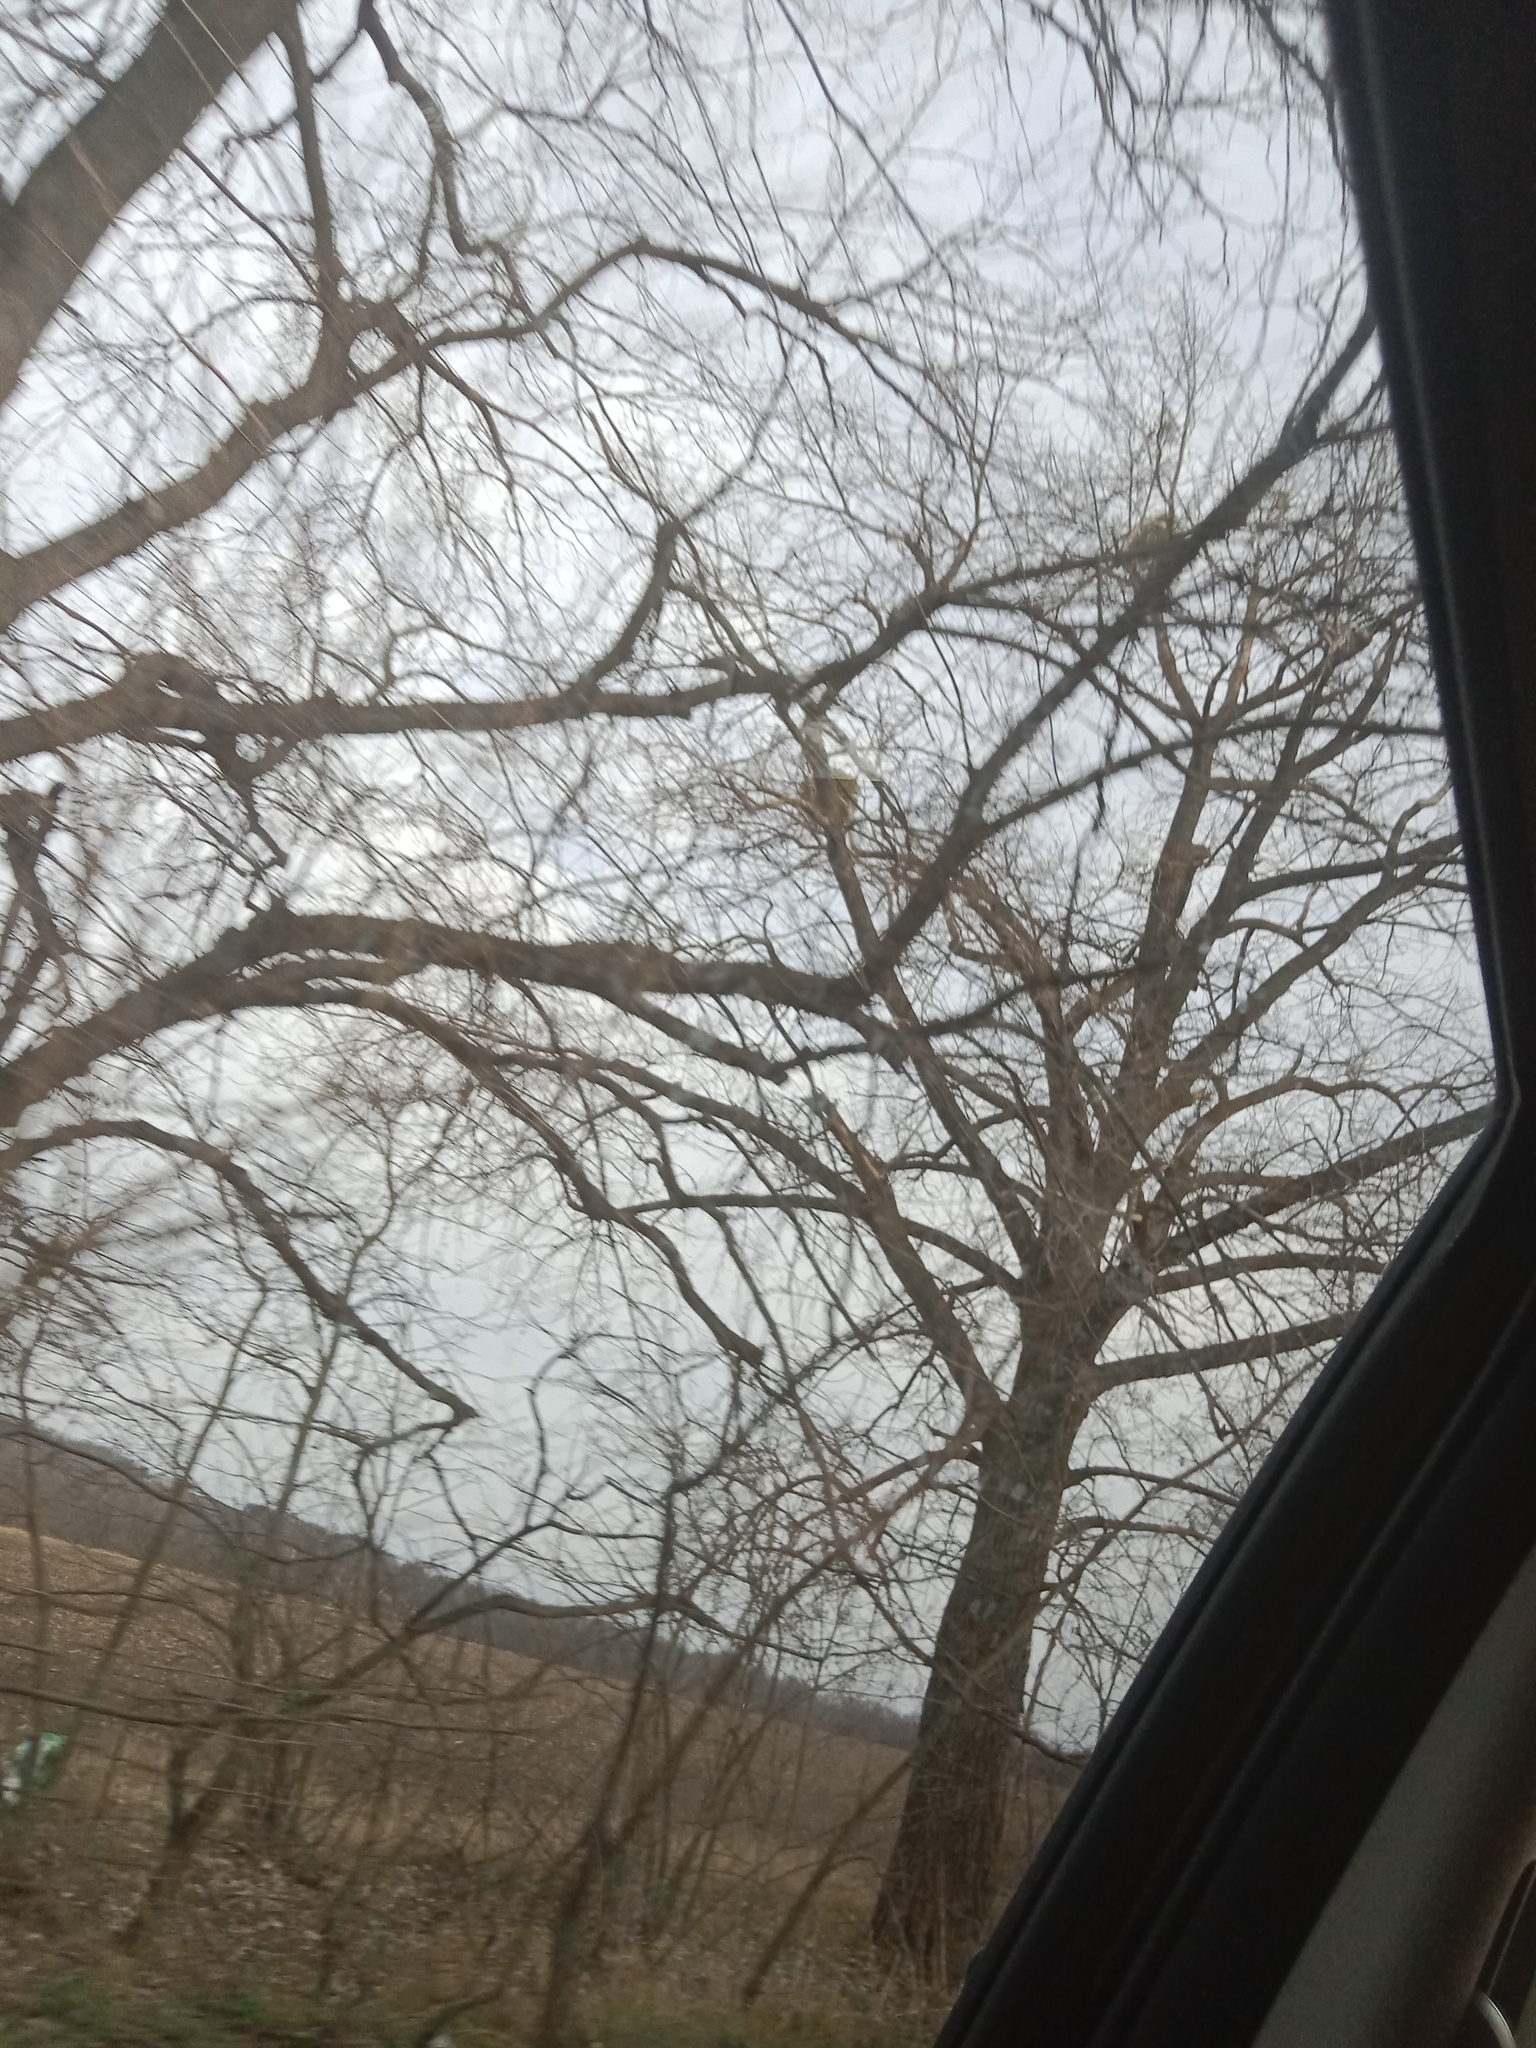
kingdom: Plantae
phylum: Tracheophyta
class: Magnoliopsida
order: Santalales
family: Viscaceae
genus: Viscum
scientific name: Viscum album
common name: Mistletoe
